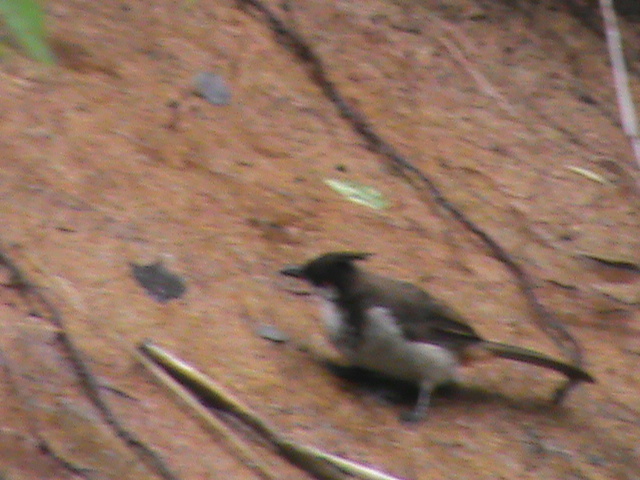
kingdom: Animalia
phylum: Chordata
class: Aves
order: Passeriformes
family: Pycnonotidae
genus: Pycnonotus
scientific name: Pycnonotus jocosus
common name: Red-whiskered bulbul
